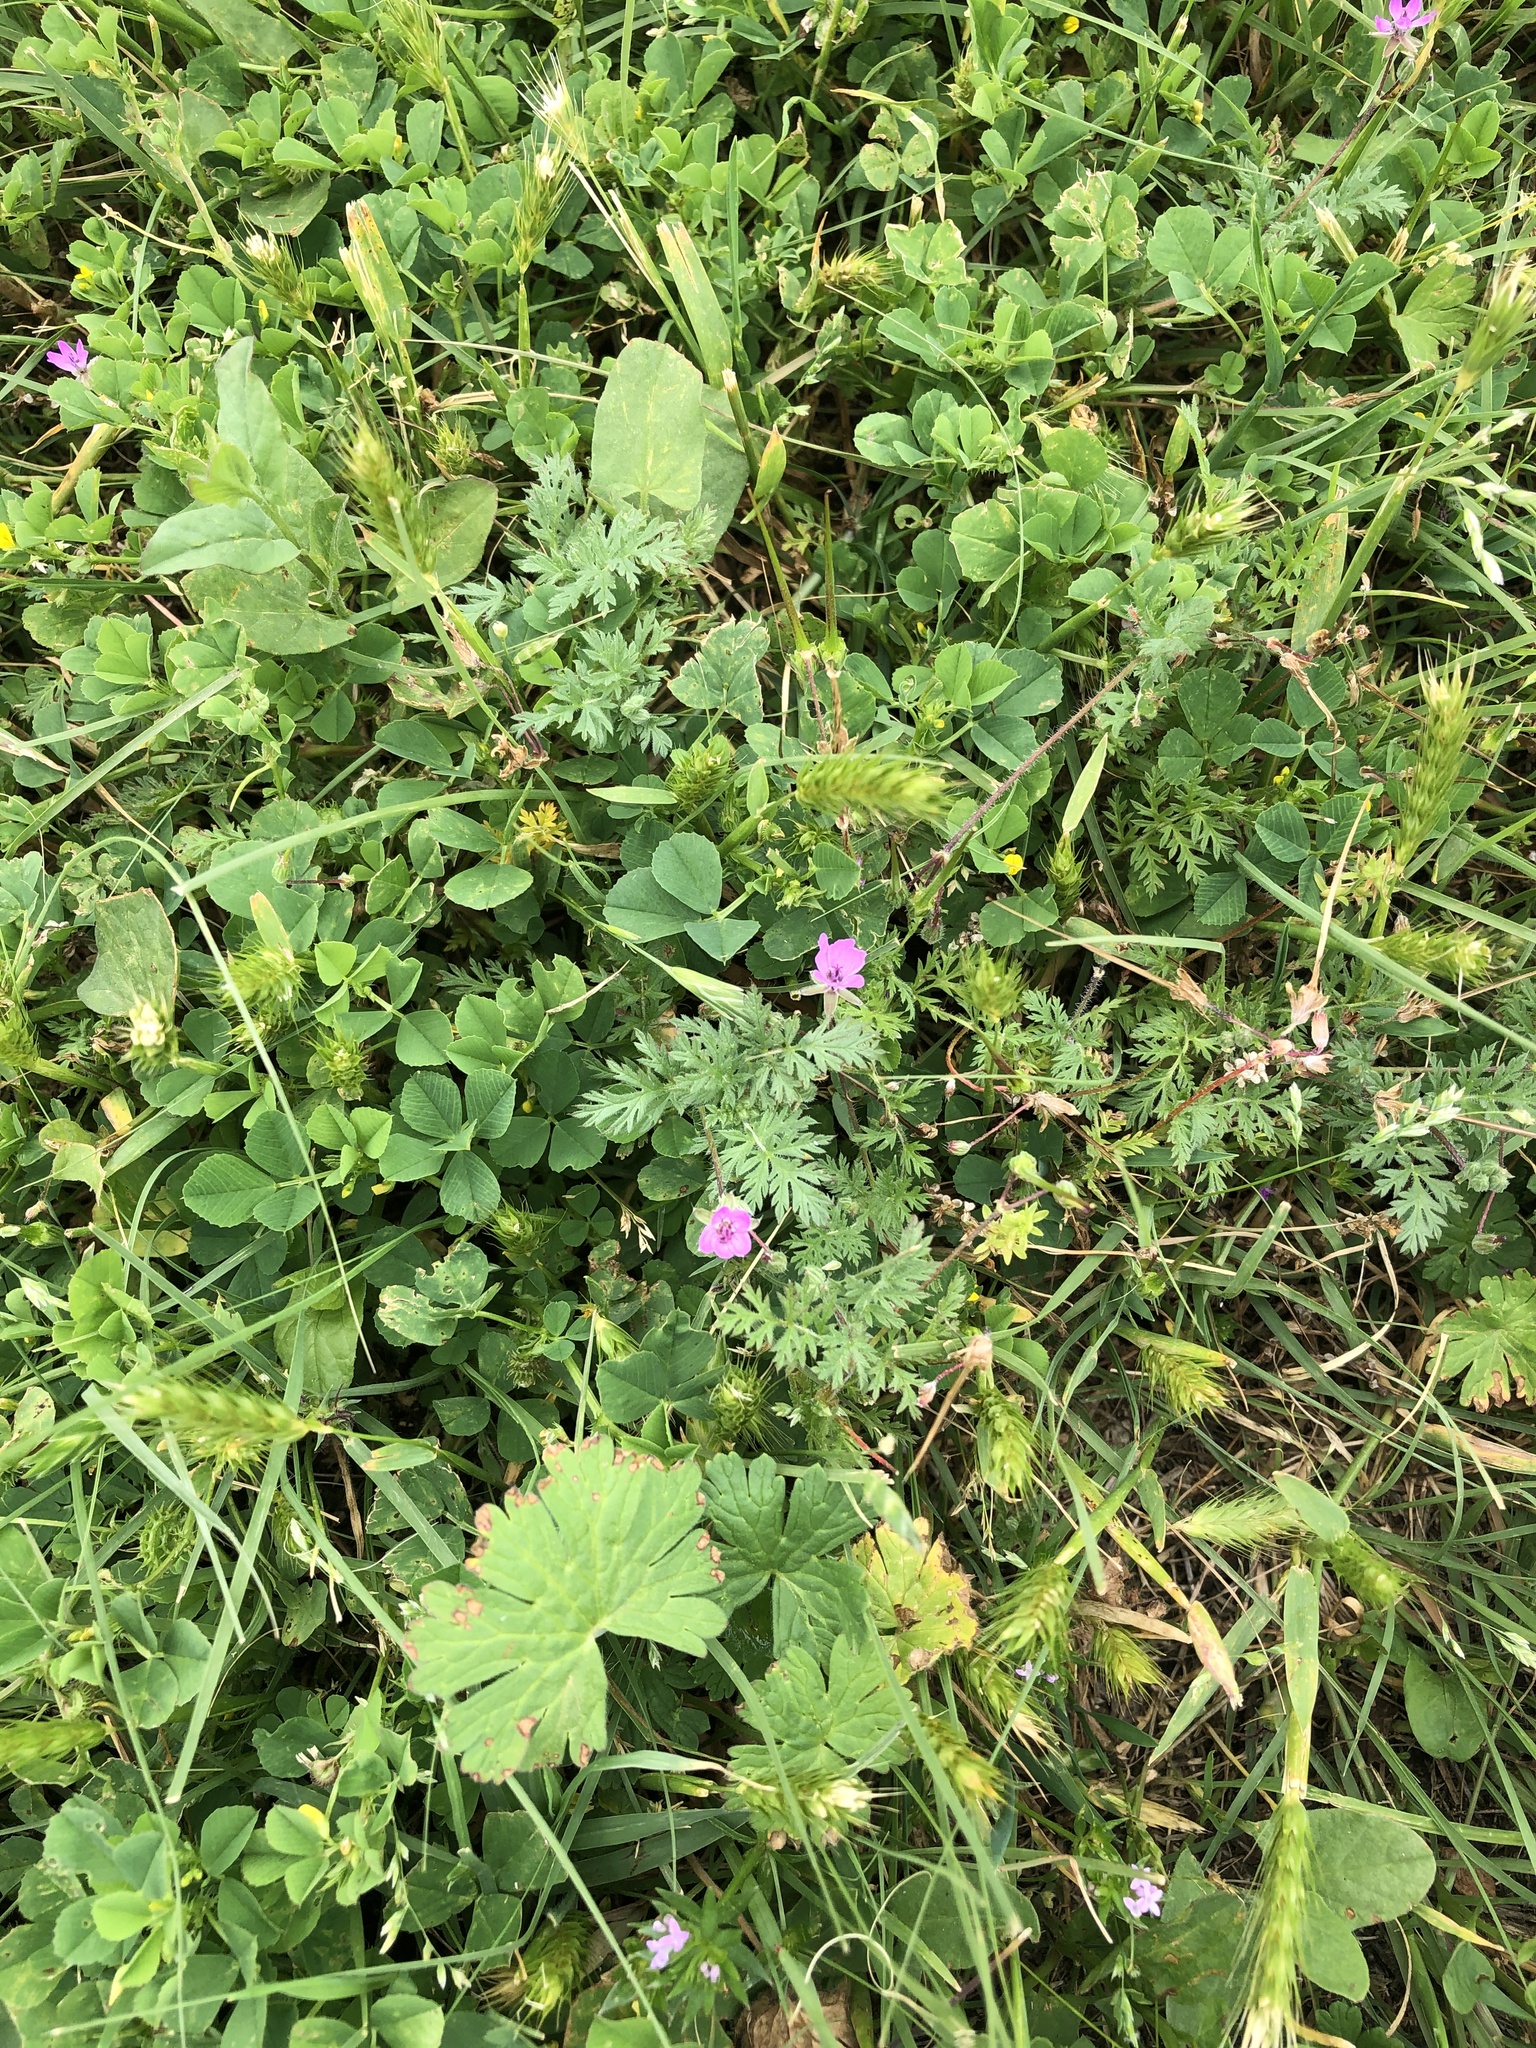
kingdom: Plantae
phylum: Tracheophyta
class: Magnoliopsida
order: Geraniales
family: Geraniaceae
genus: Erodium
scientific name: Erodium cicutarium
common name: Common stork's-bill
